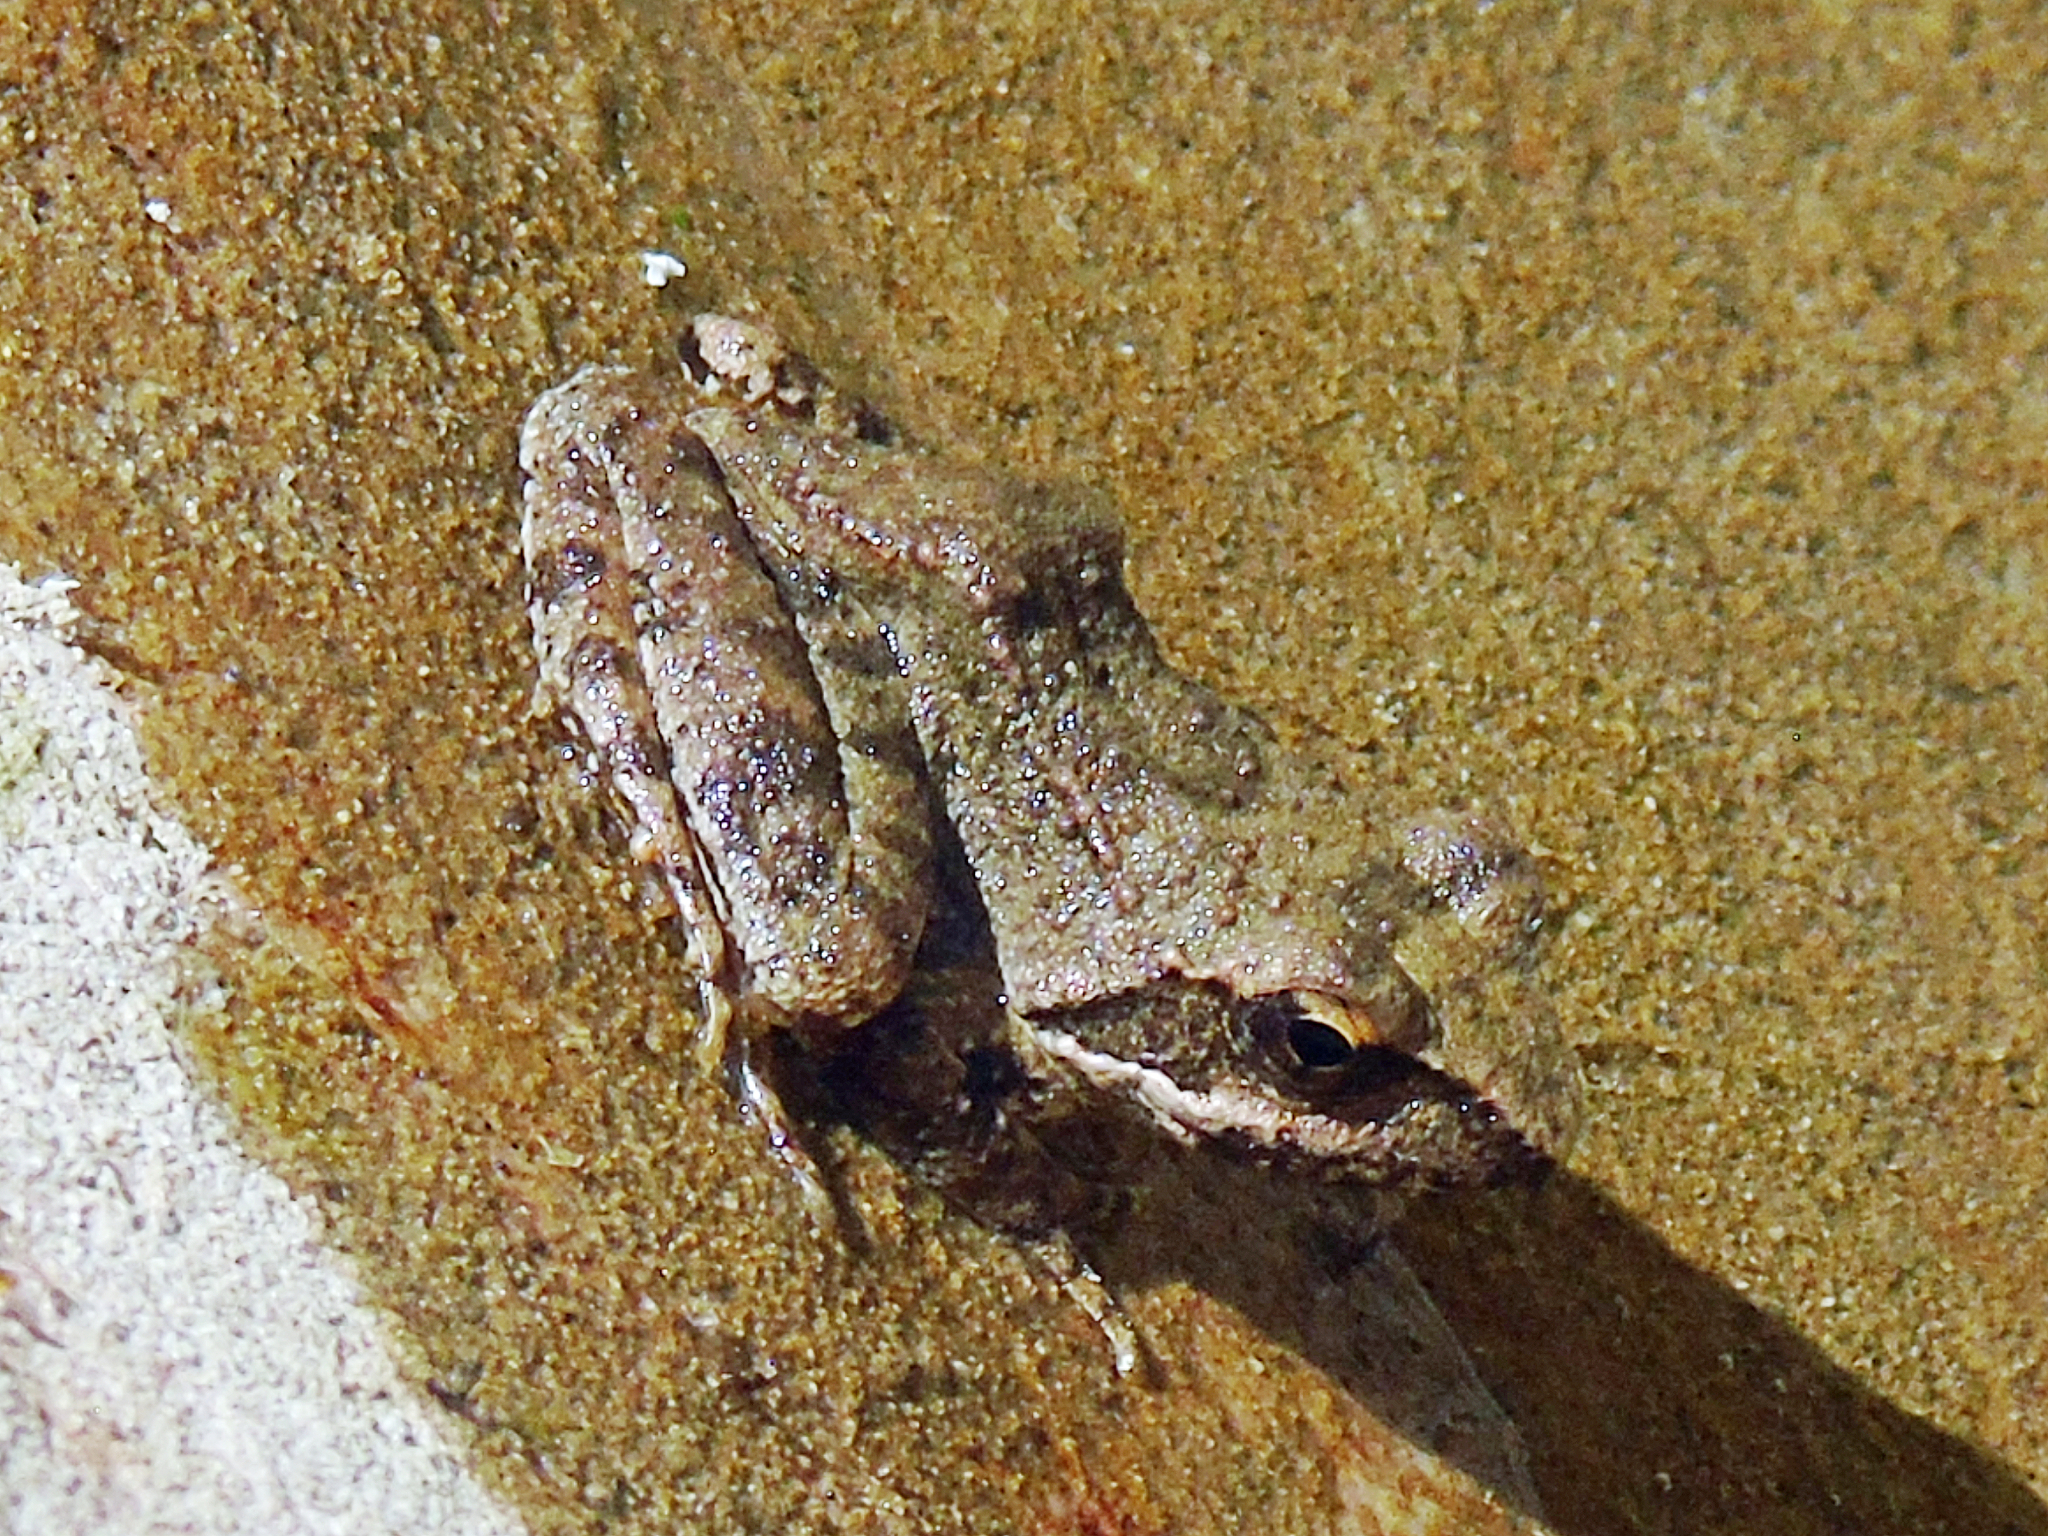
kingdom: Animalia
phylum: Chordata
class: Amphibia
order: Anura
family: Ranidae
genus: Rana
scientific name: Rana graeca
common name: Greek stream frog
